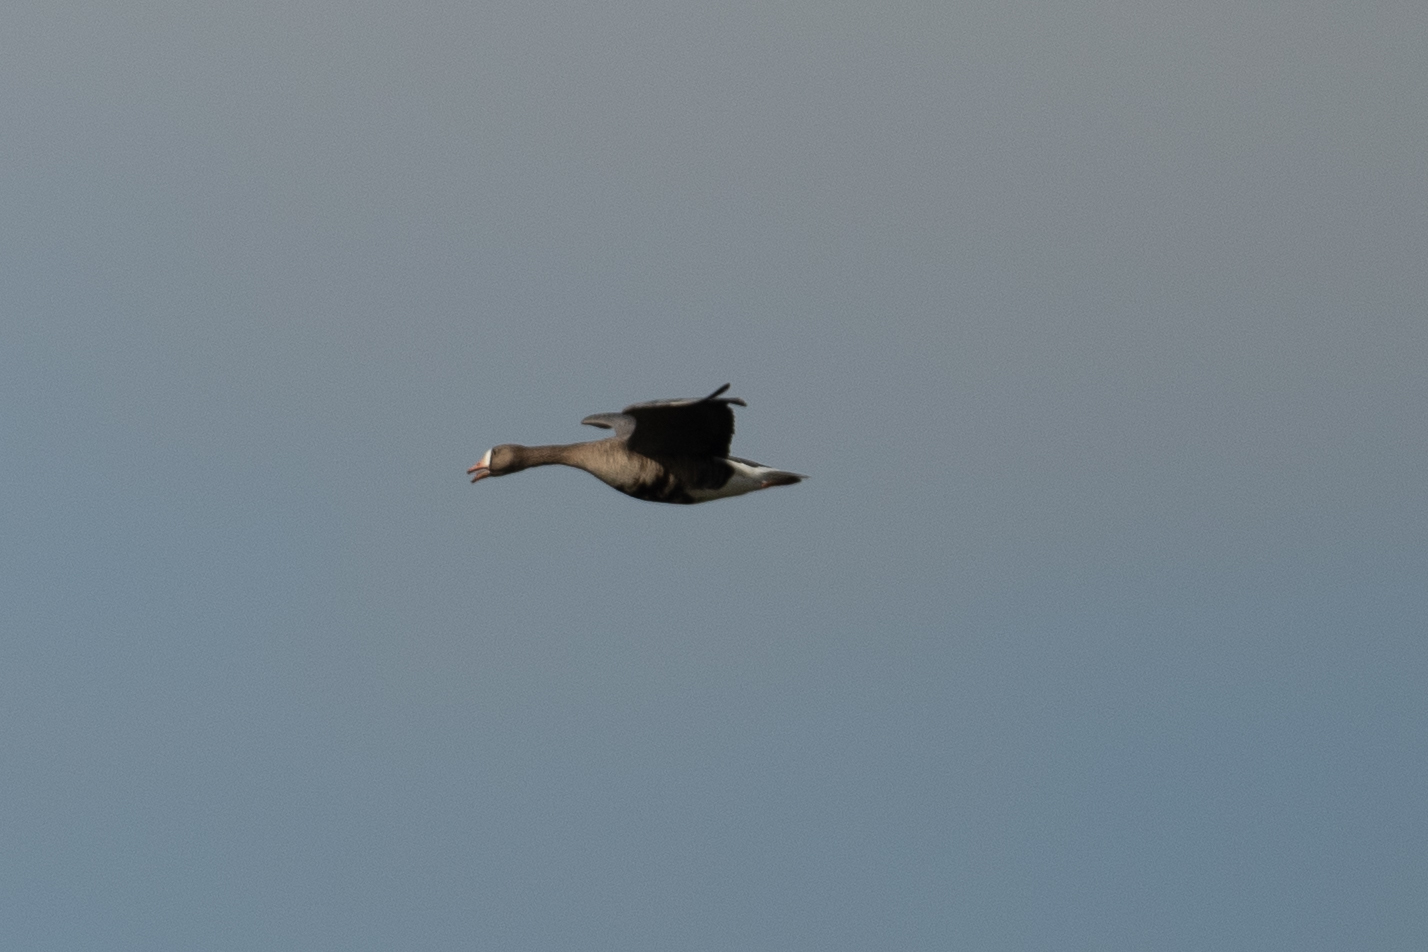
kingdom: Animalia
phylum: Chordata
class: Aves
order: Anseriformes
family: Anatidae
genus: Anser
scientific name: Anser albifrons
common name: Greater white-fronted goose
